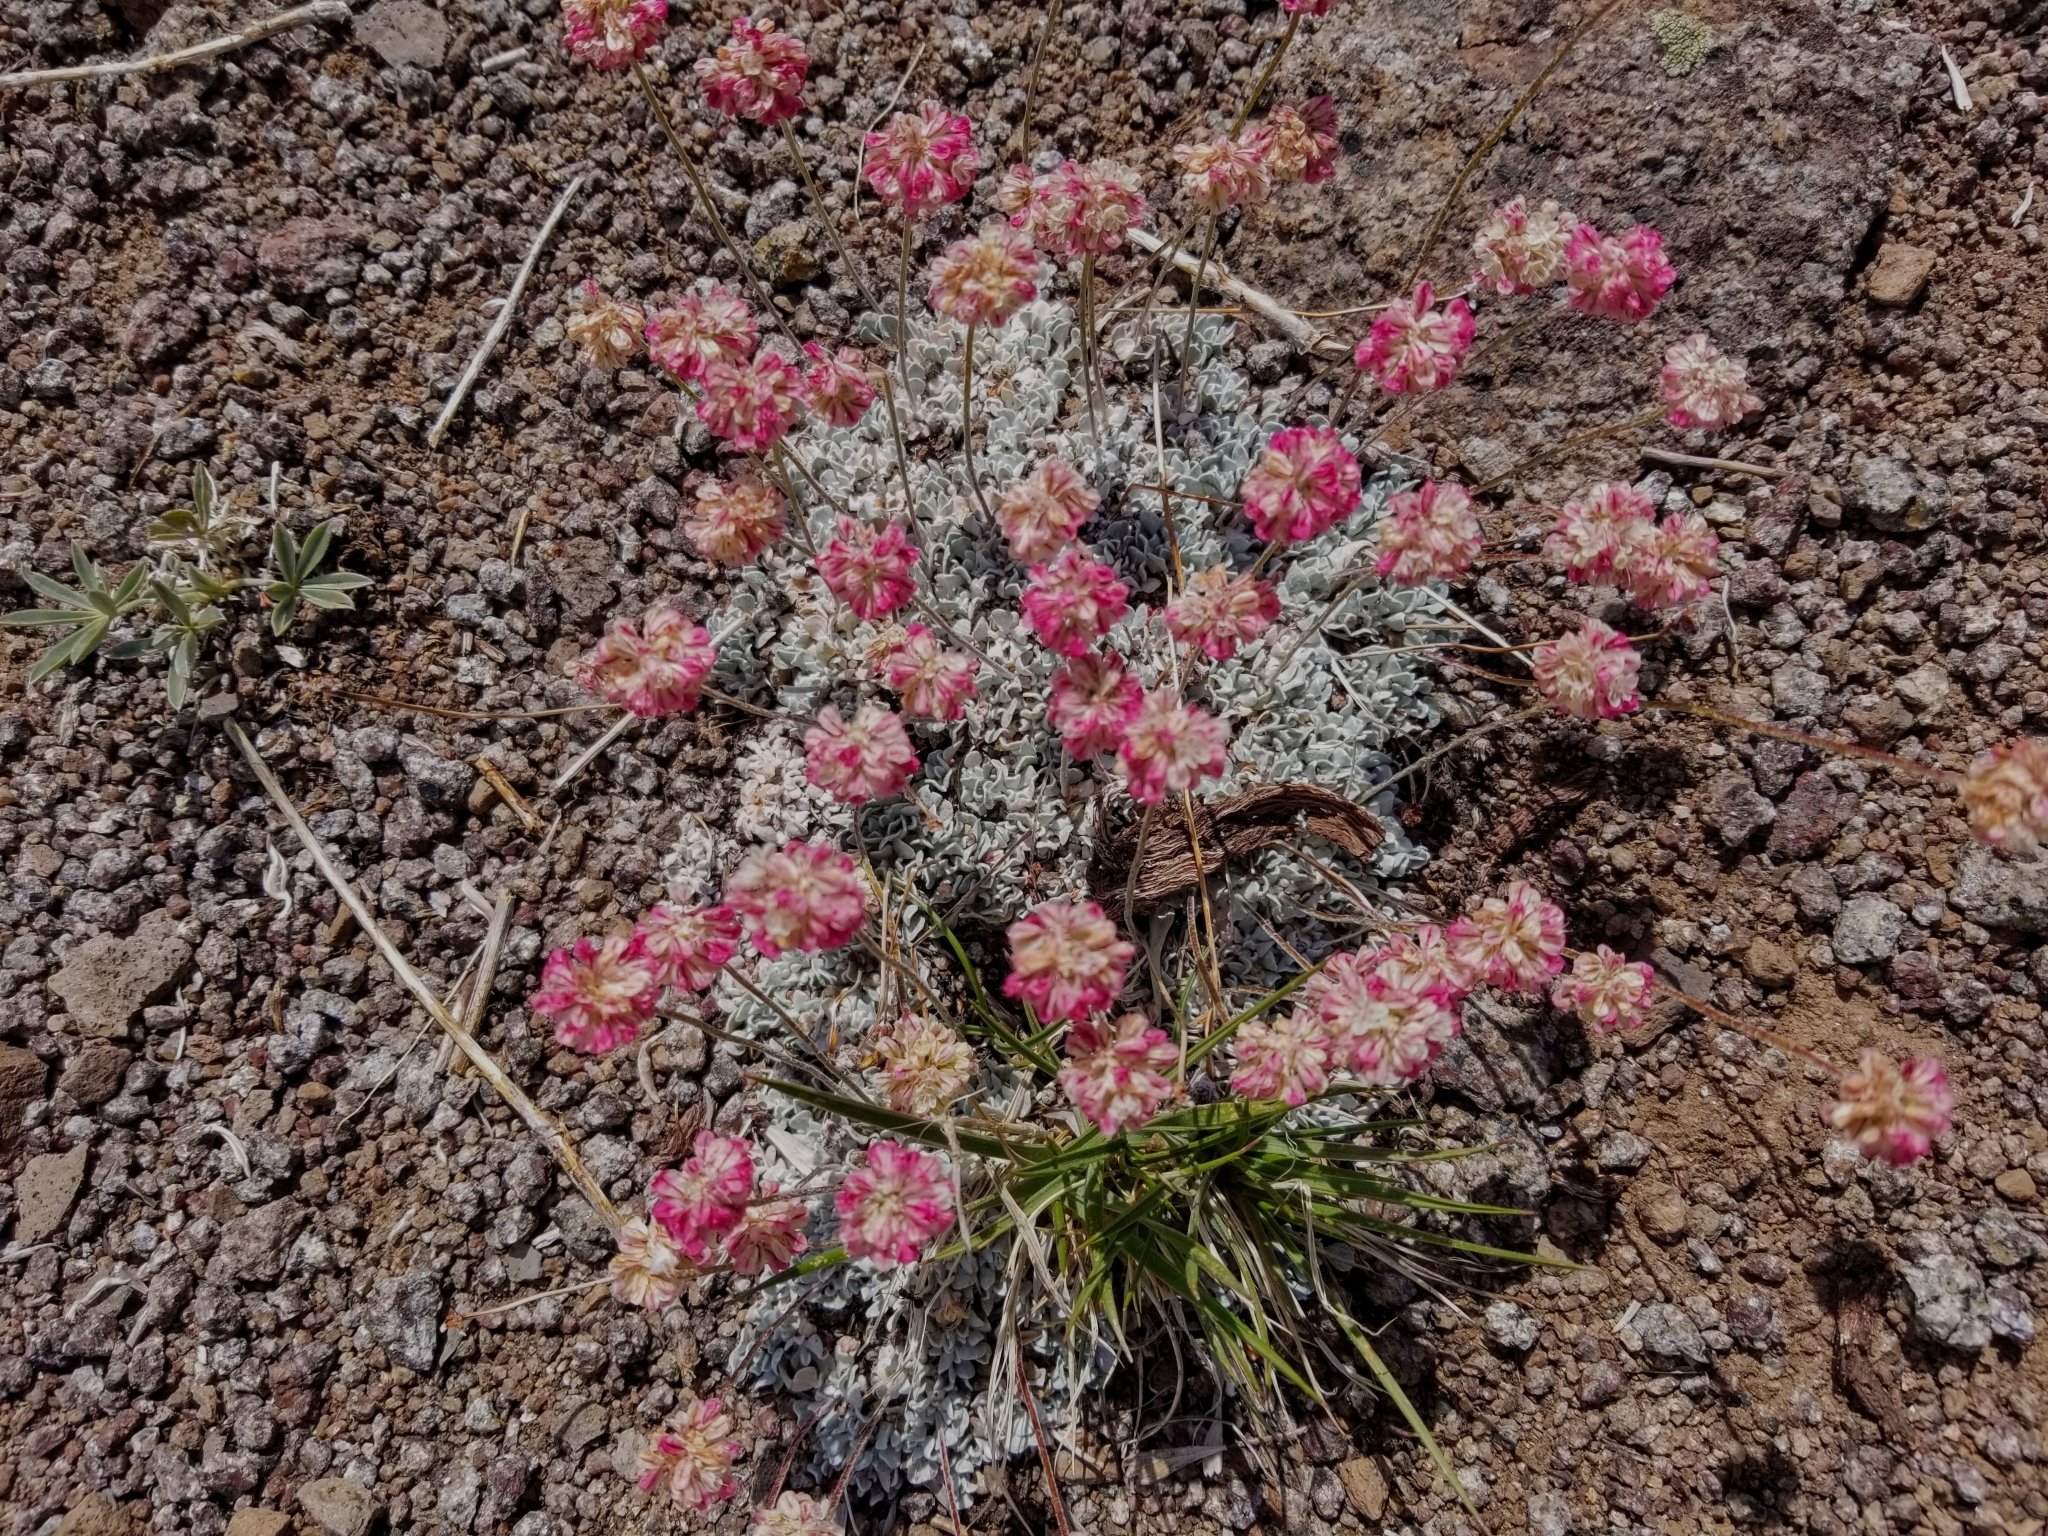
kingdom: Plantae
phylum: Tracheophyta
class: Magnoliopsida
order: Caryophyllales
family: Polygonaceae
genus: Eriogonum
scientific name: Eriogonum ovalifolium
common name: Cushion buckwheat
